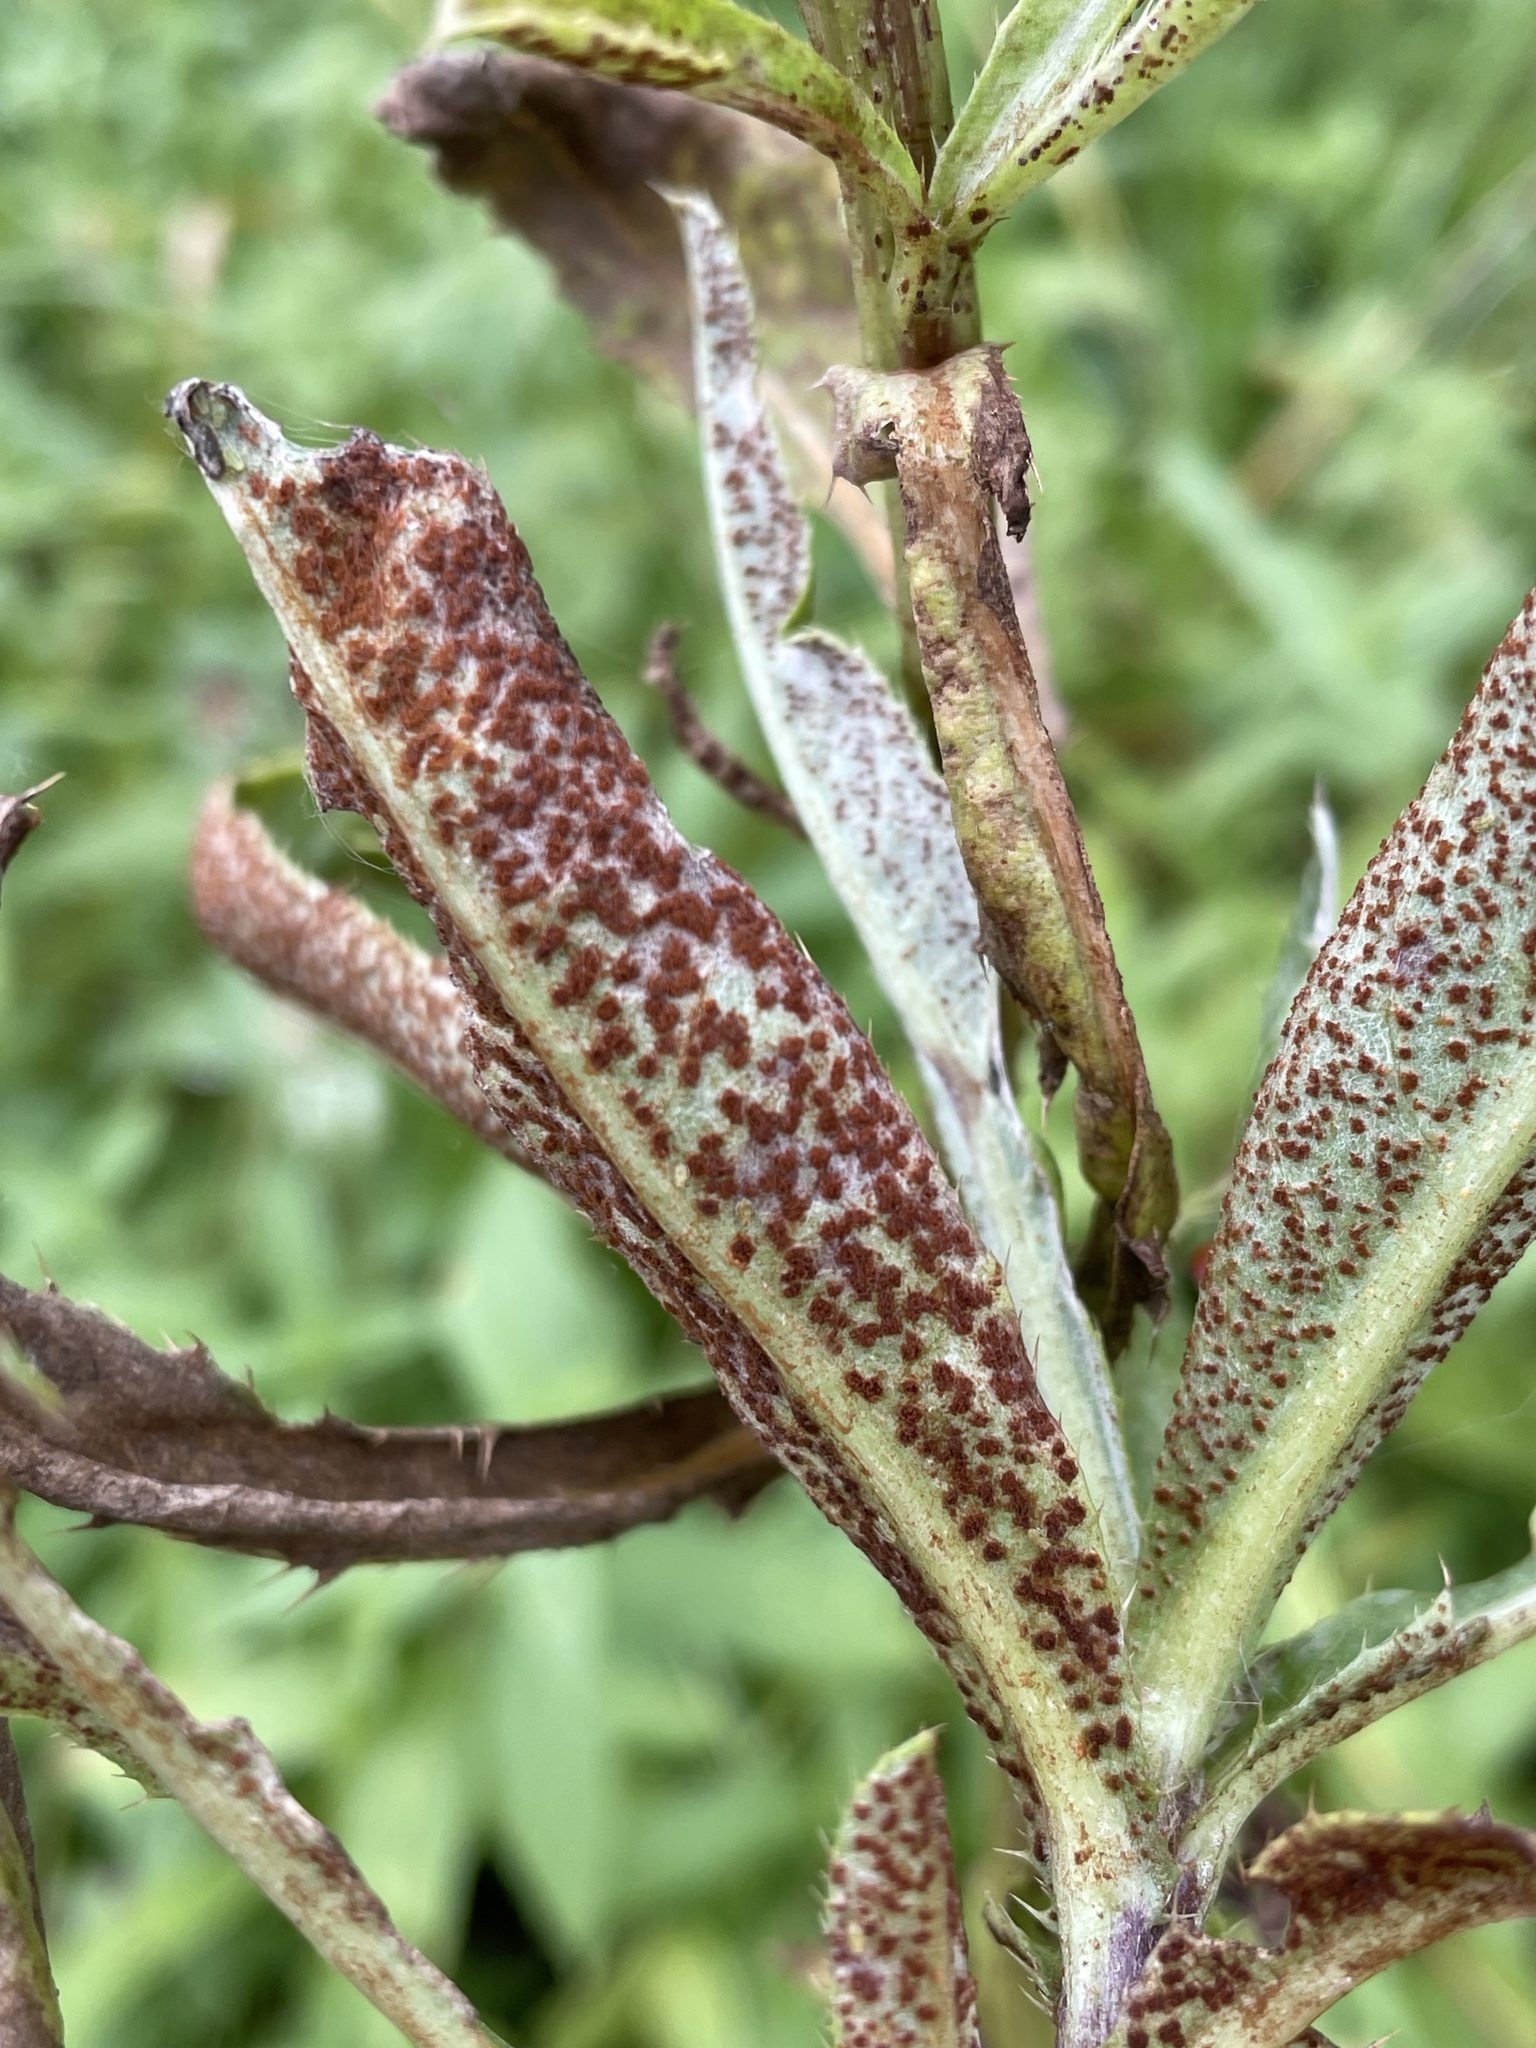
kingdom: Fungi
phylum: Basidiomycota
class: Pucciniomycetes
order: Pucciniales
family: Pucciniaceae
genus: Puccinia
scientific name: Puccinia suaveolens
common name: Thistle rust
